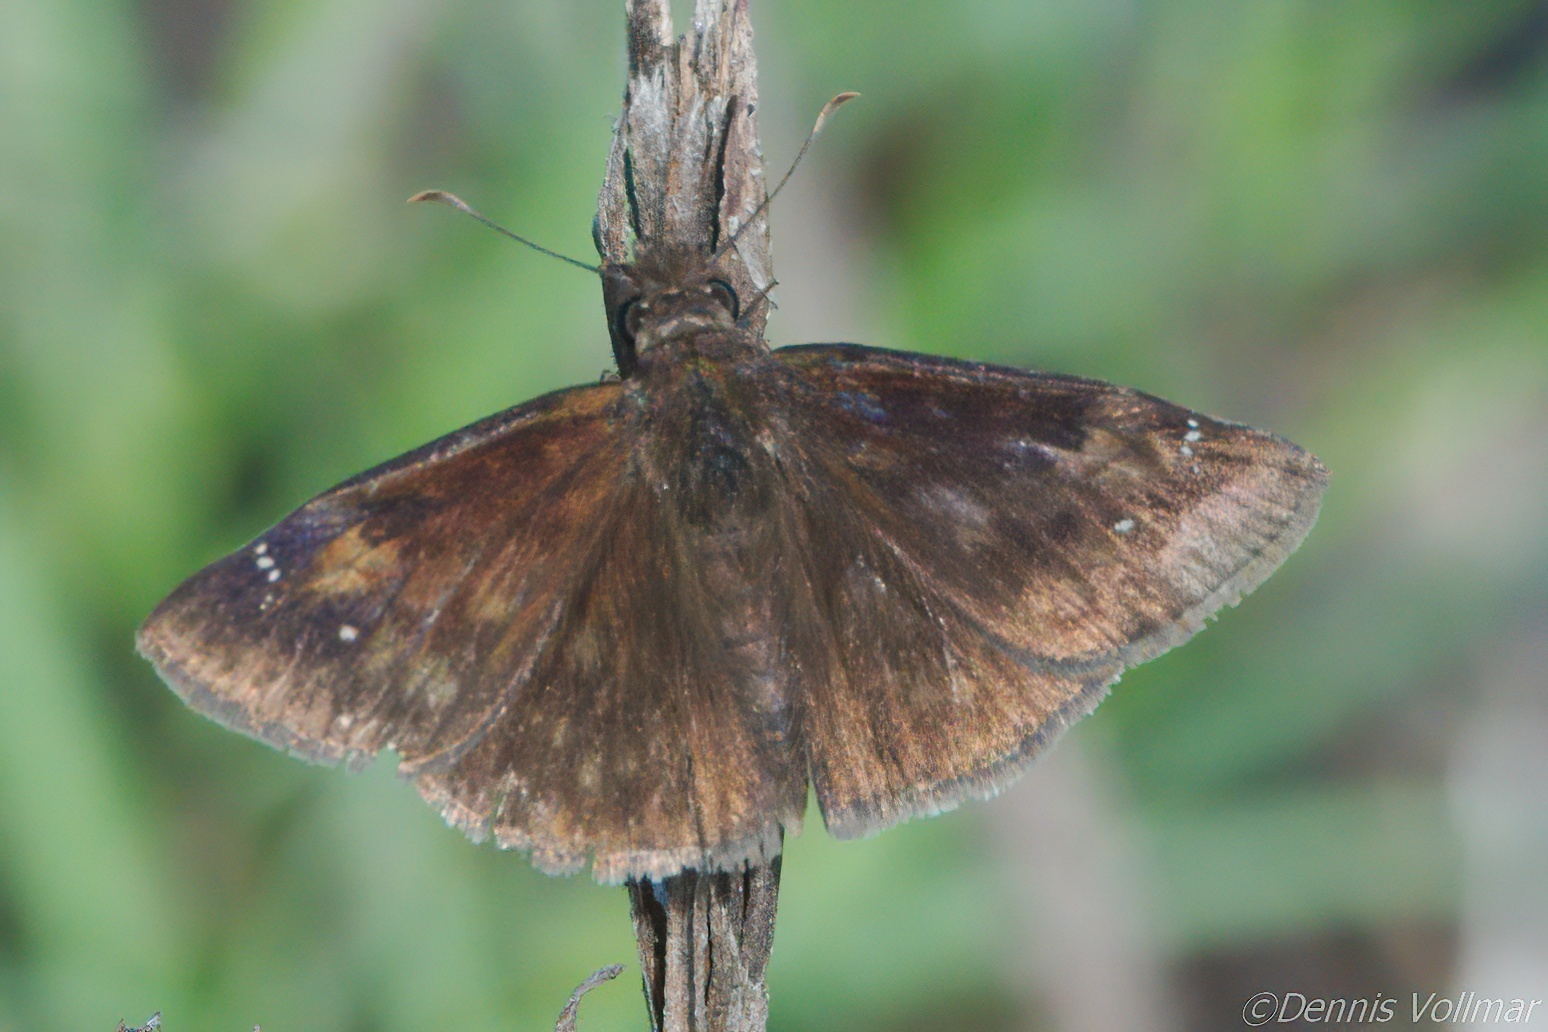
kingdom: Animalia
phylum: Arthropoda
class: Insecta
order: Lepidoptera
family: Hesperiidae
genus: Erynnis
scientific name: Erynnis zarucco
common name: Zarucco duskywing
